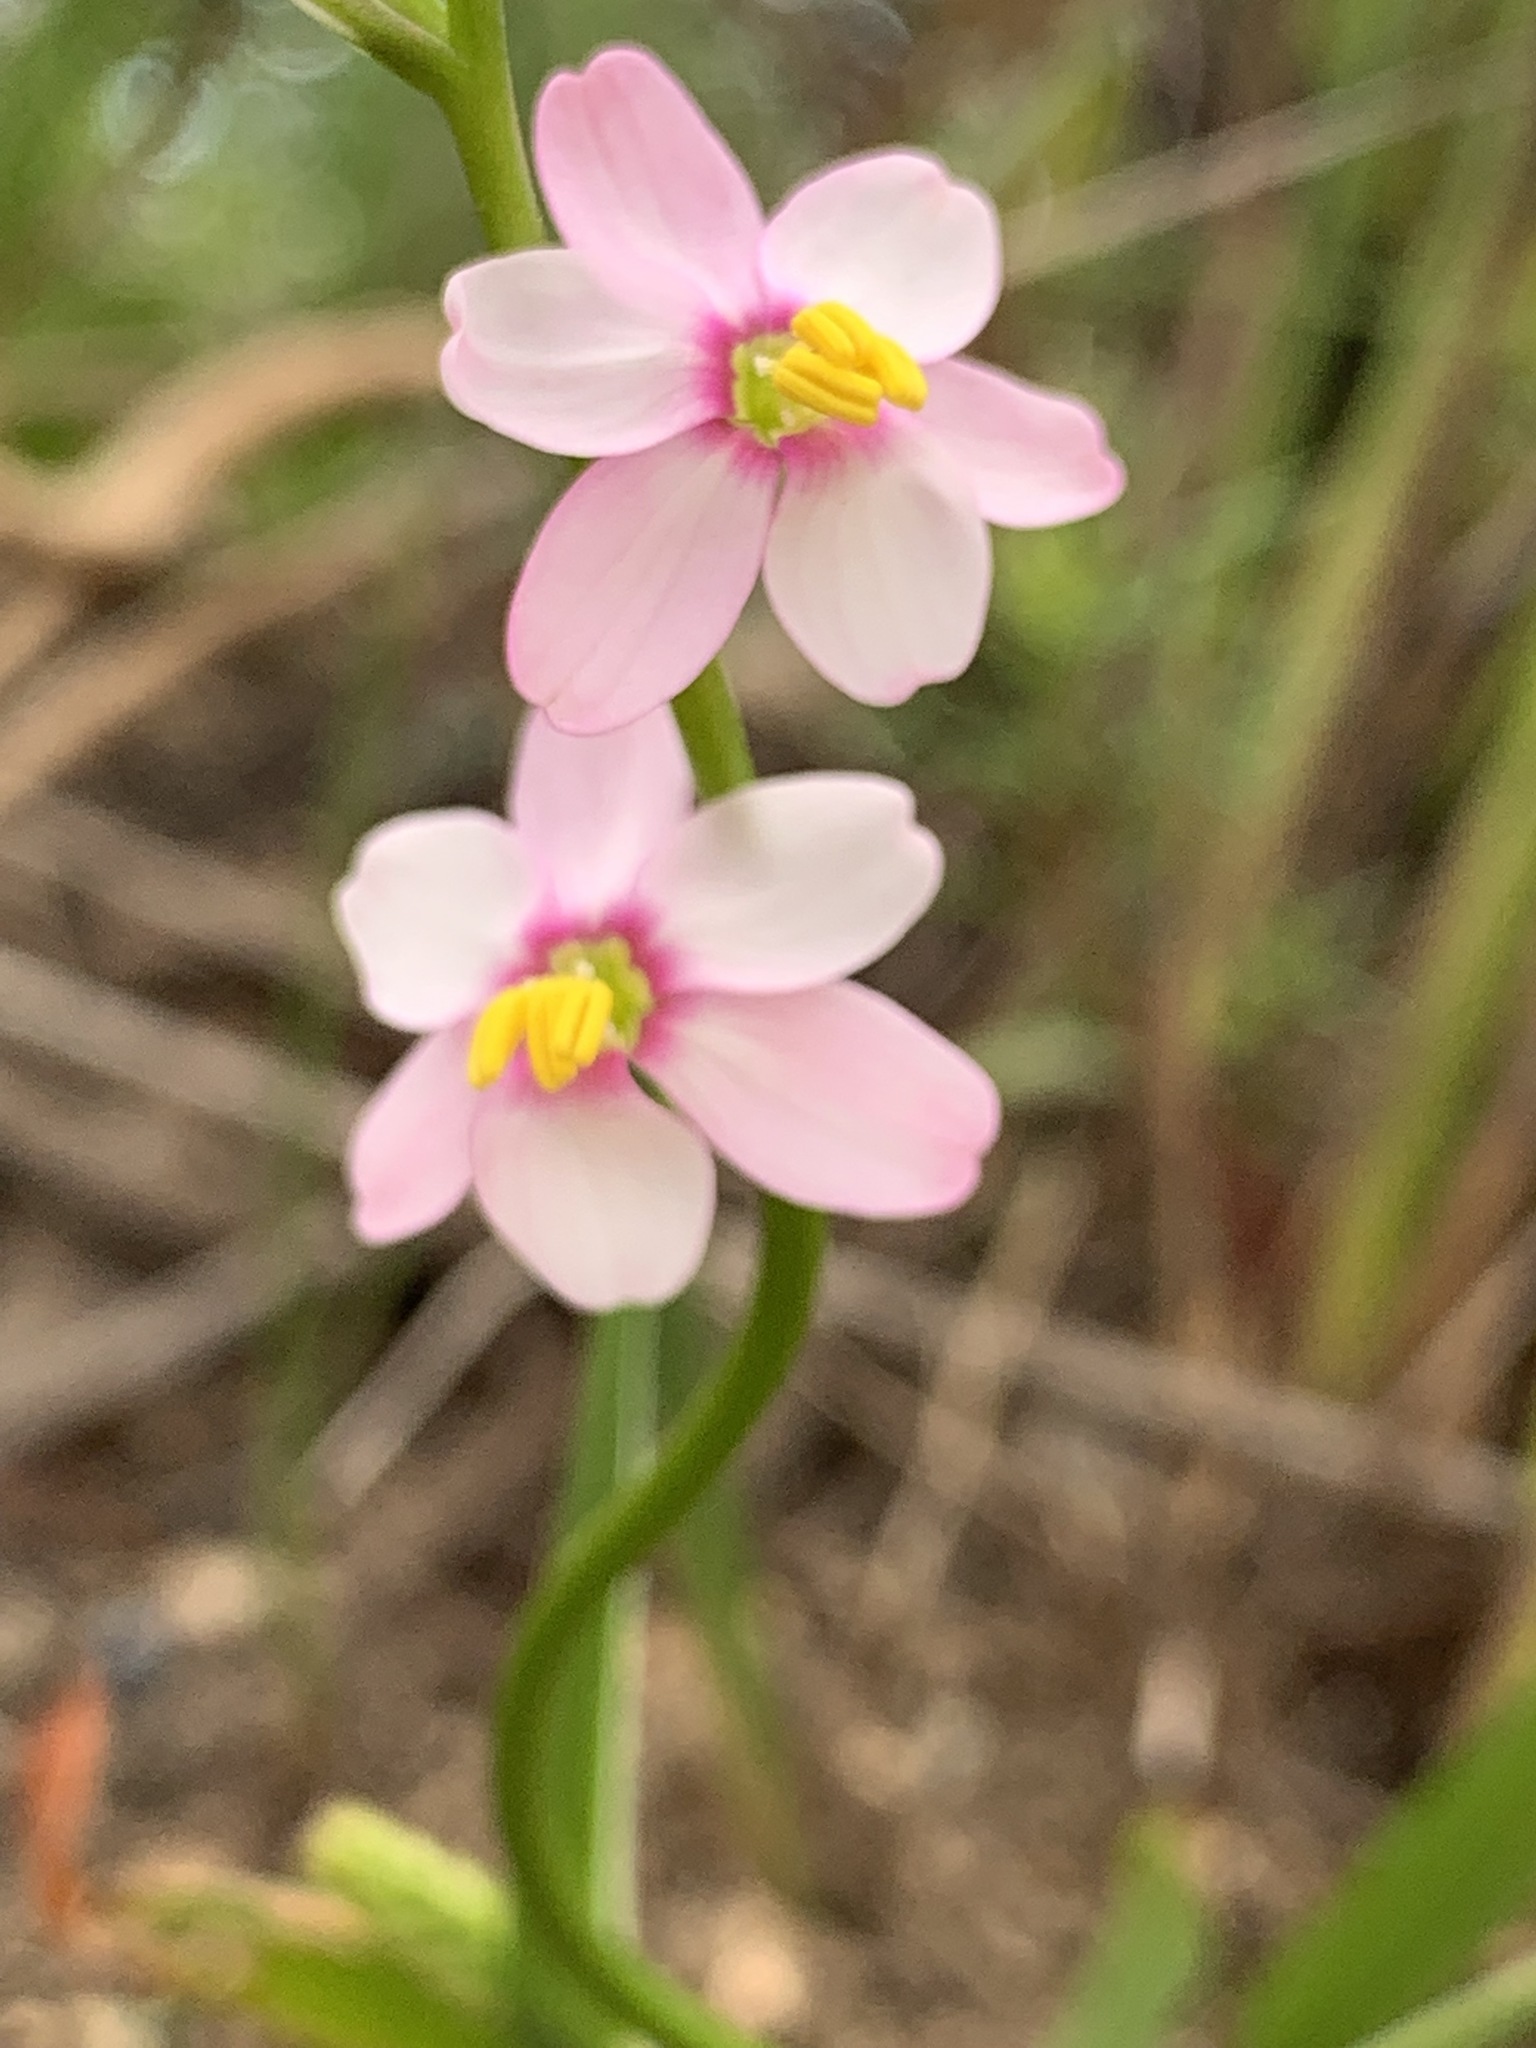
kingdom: Plantae
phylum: Tracheophyta
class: Liliopsida
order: Asparagales
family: Iridaceae
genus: Ixia
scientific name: Ixia scillaris
